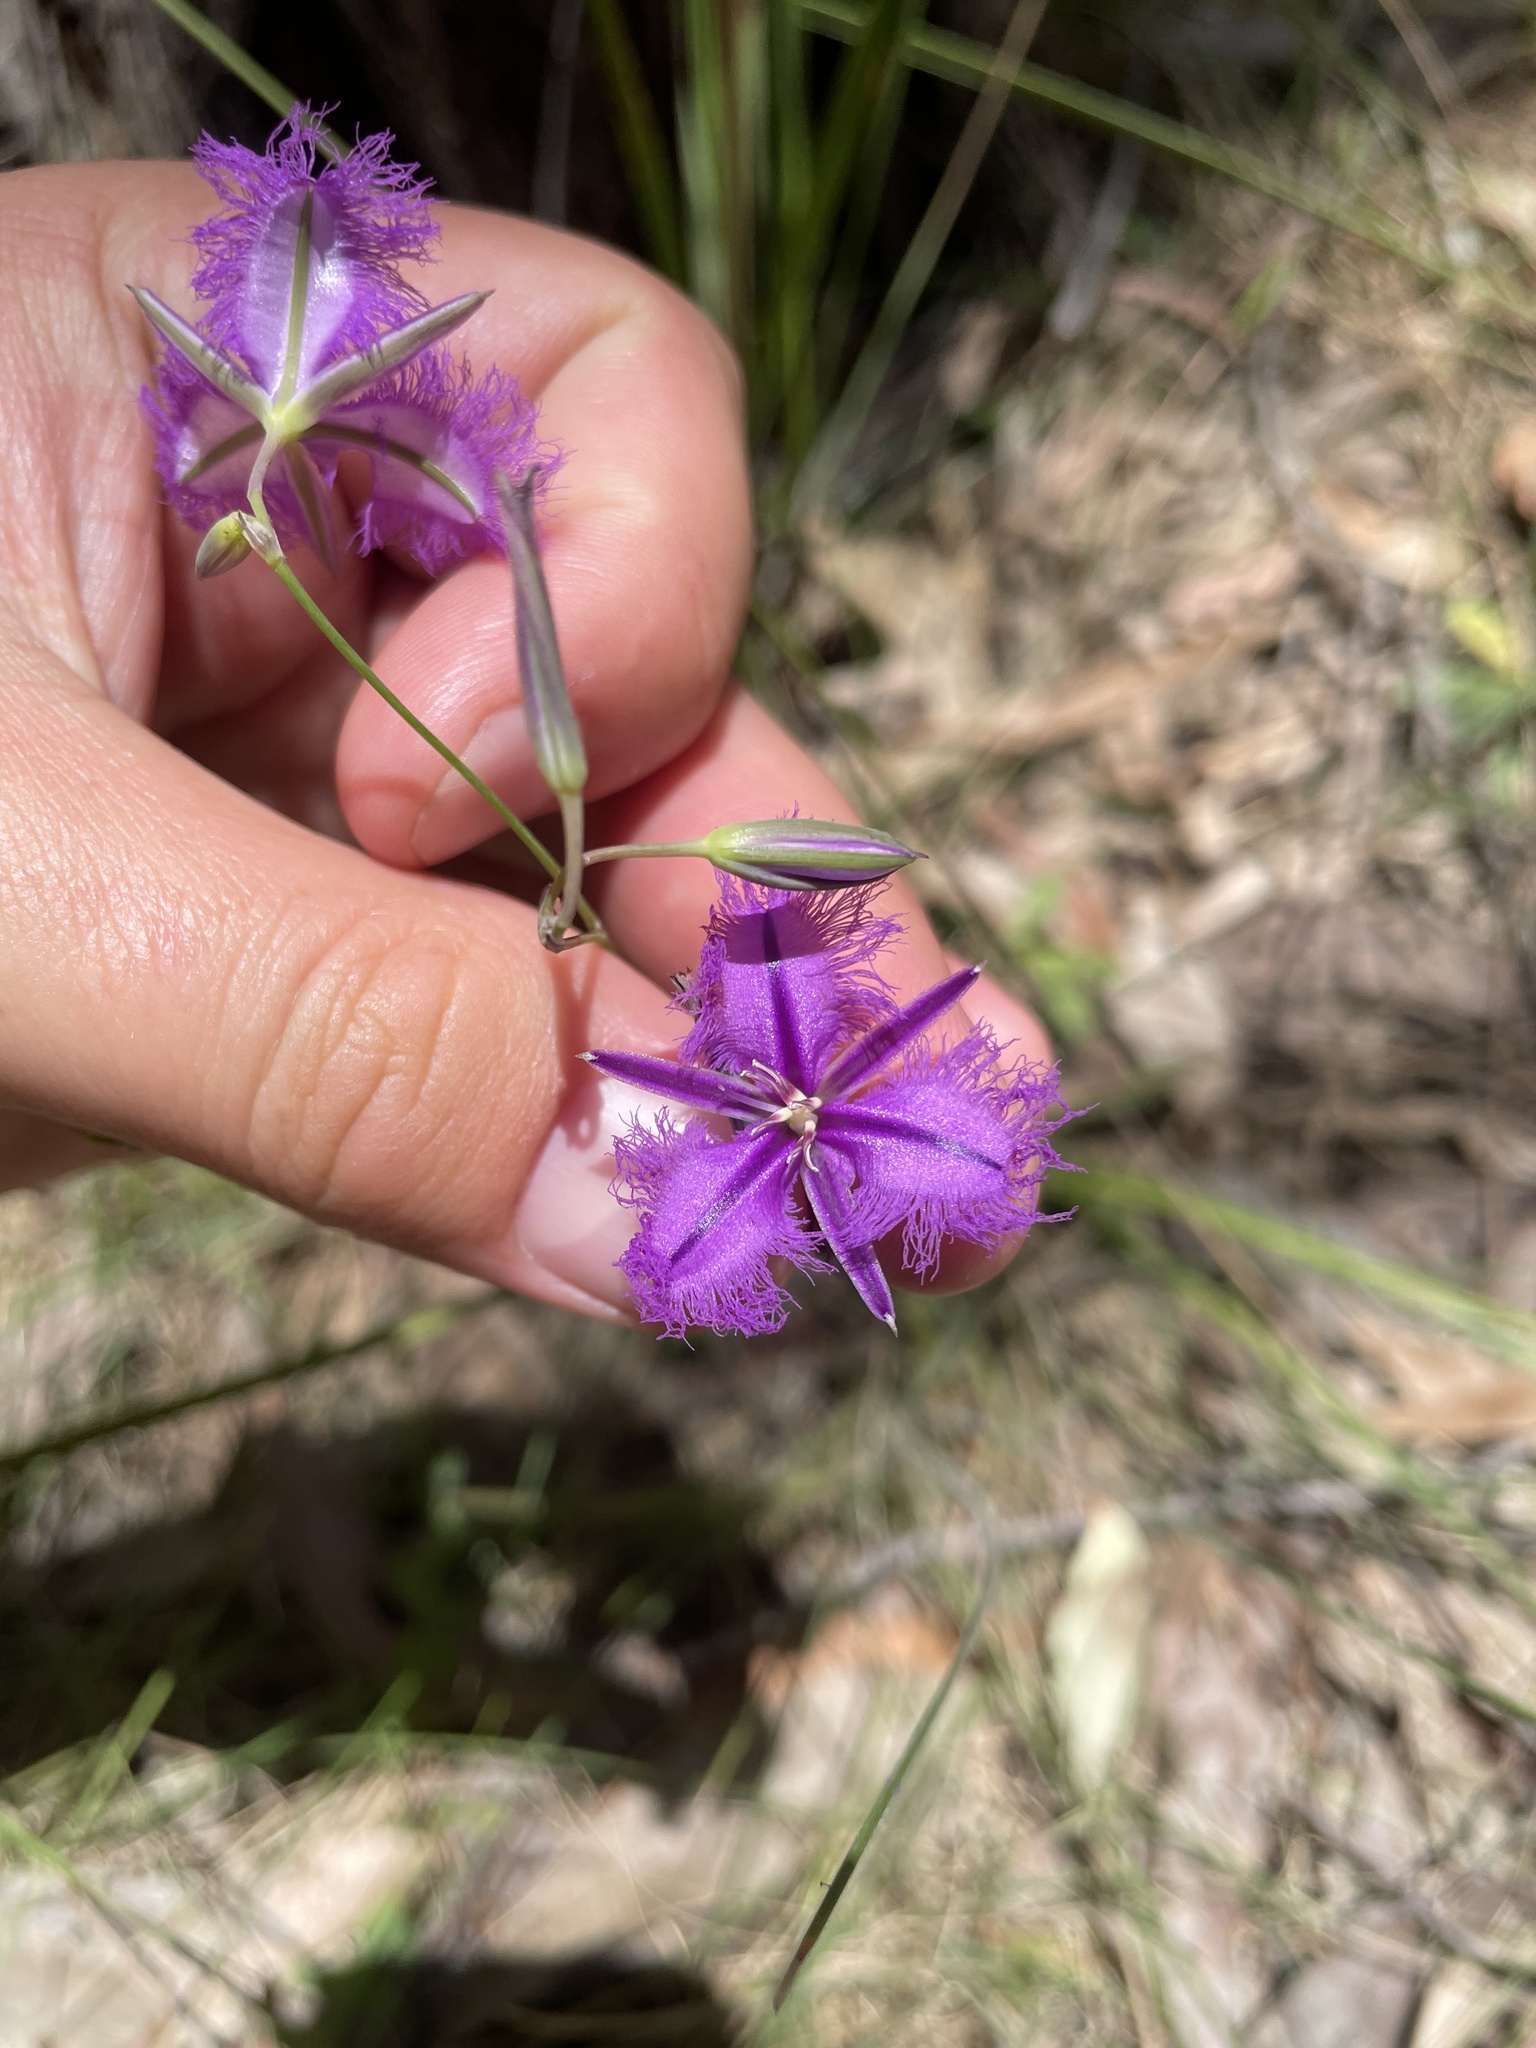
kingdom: Plantae
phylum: Tracheophyta
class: Liliopsida
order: Asparagales
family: Asparagaceae
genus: Thysanotus
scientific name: Thysanotus tuberosus
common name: Common fringed-lily
